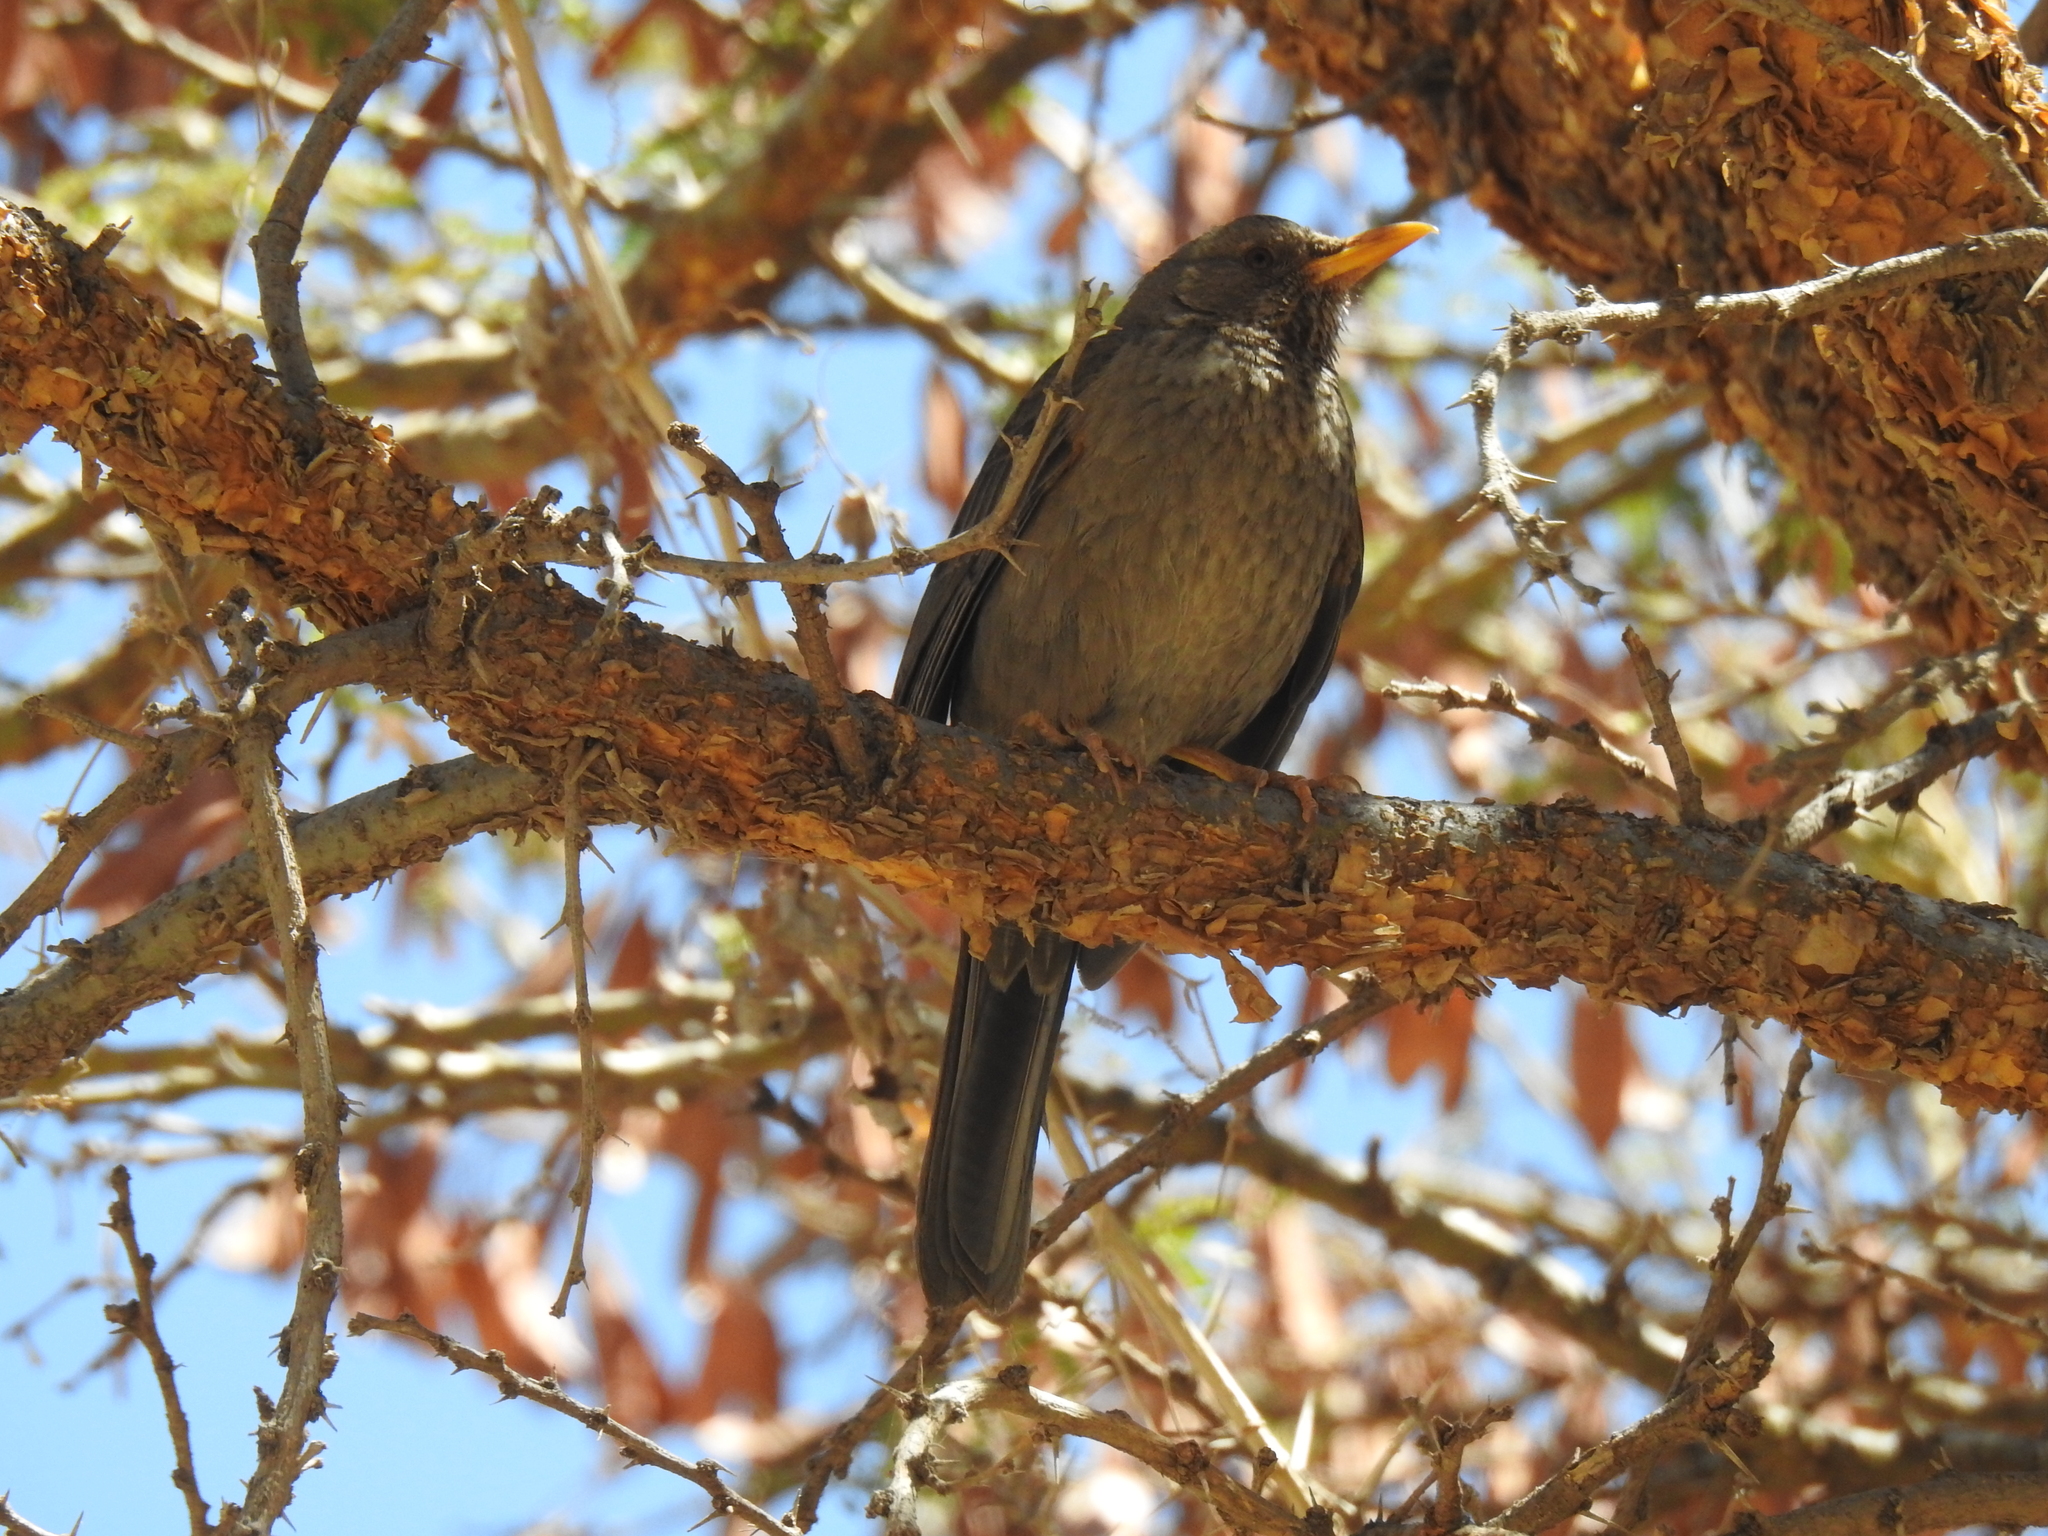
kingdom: Animalia
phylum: Chordata
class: Aves
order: Passeriformes
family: Turdidae
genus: Turdus
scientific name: Turdus menachensis
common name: Yemen thrush
